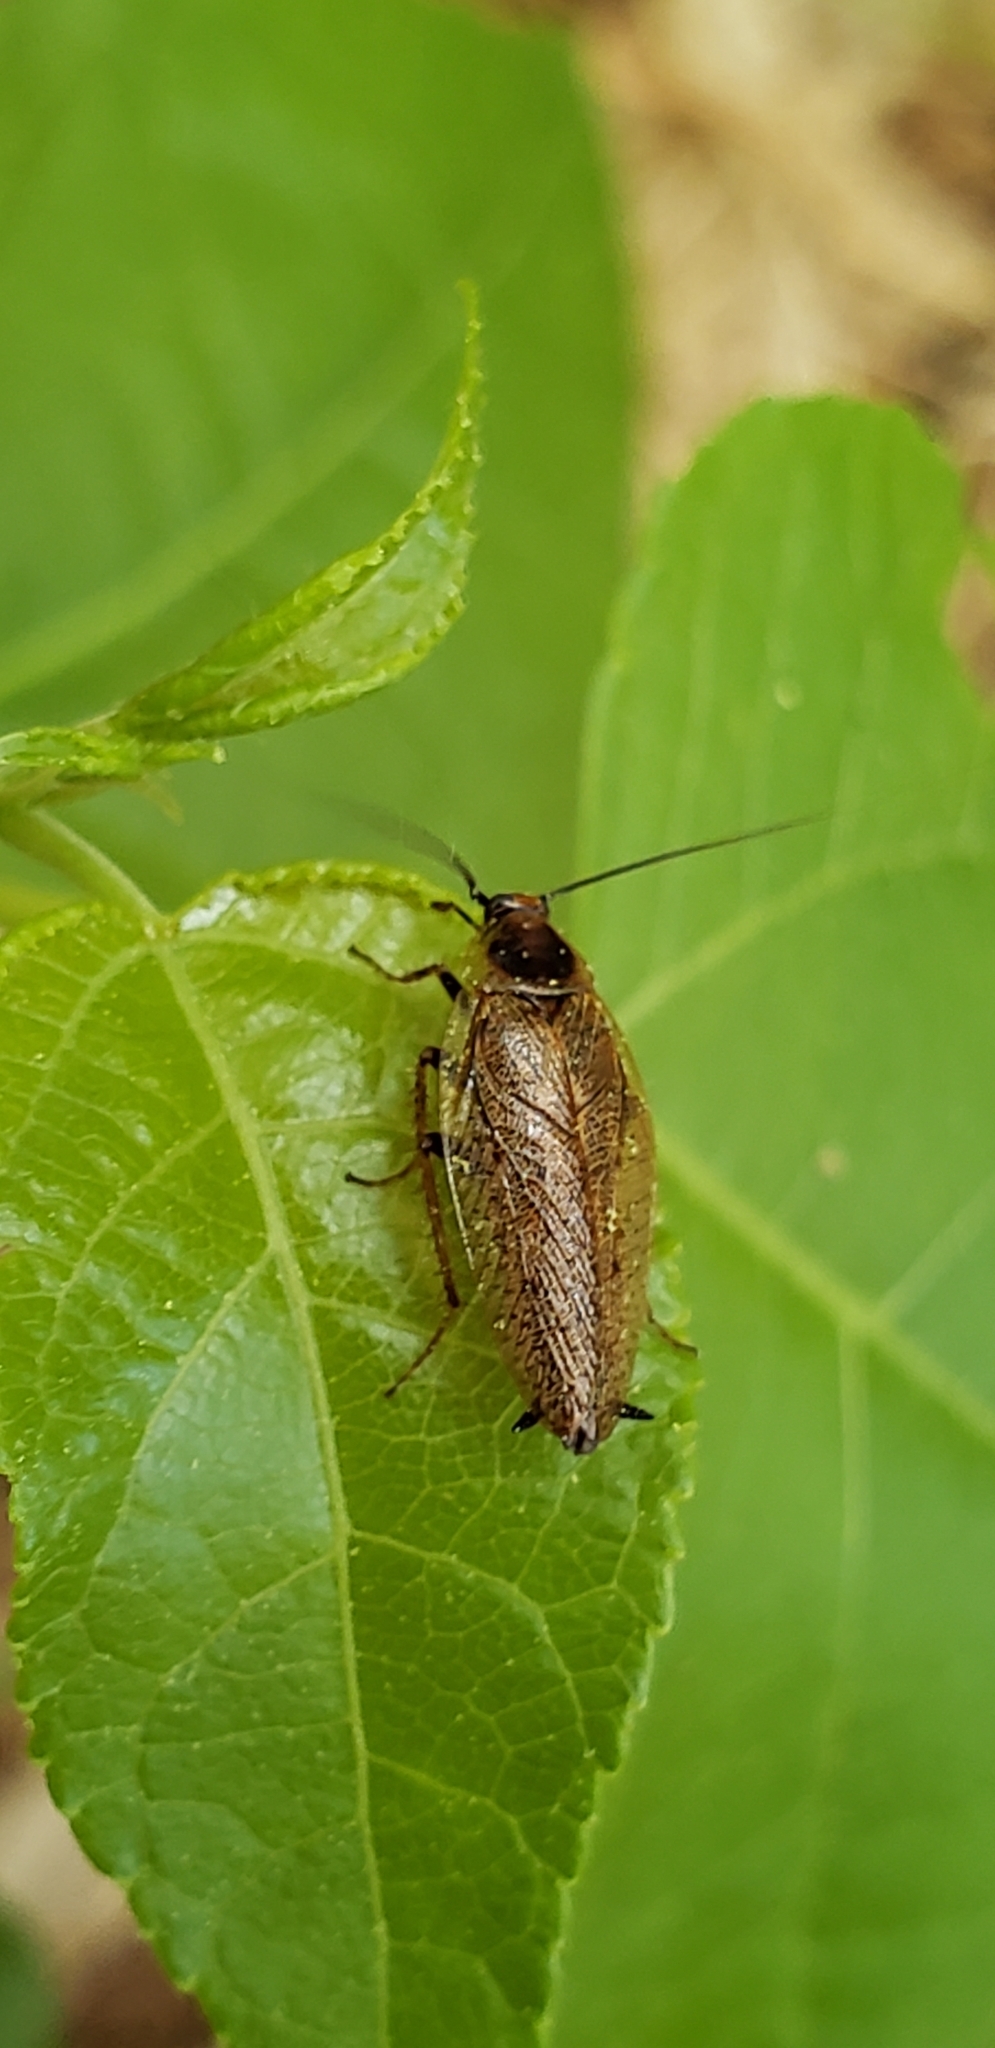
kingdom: Animalia
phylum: Arthropoda
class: Insecta
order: Blattodea
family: Ectobiidae
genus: Ectobius
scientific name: Ectobius lapponicus
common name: Dusky cockroach
